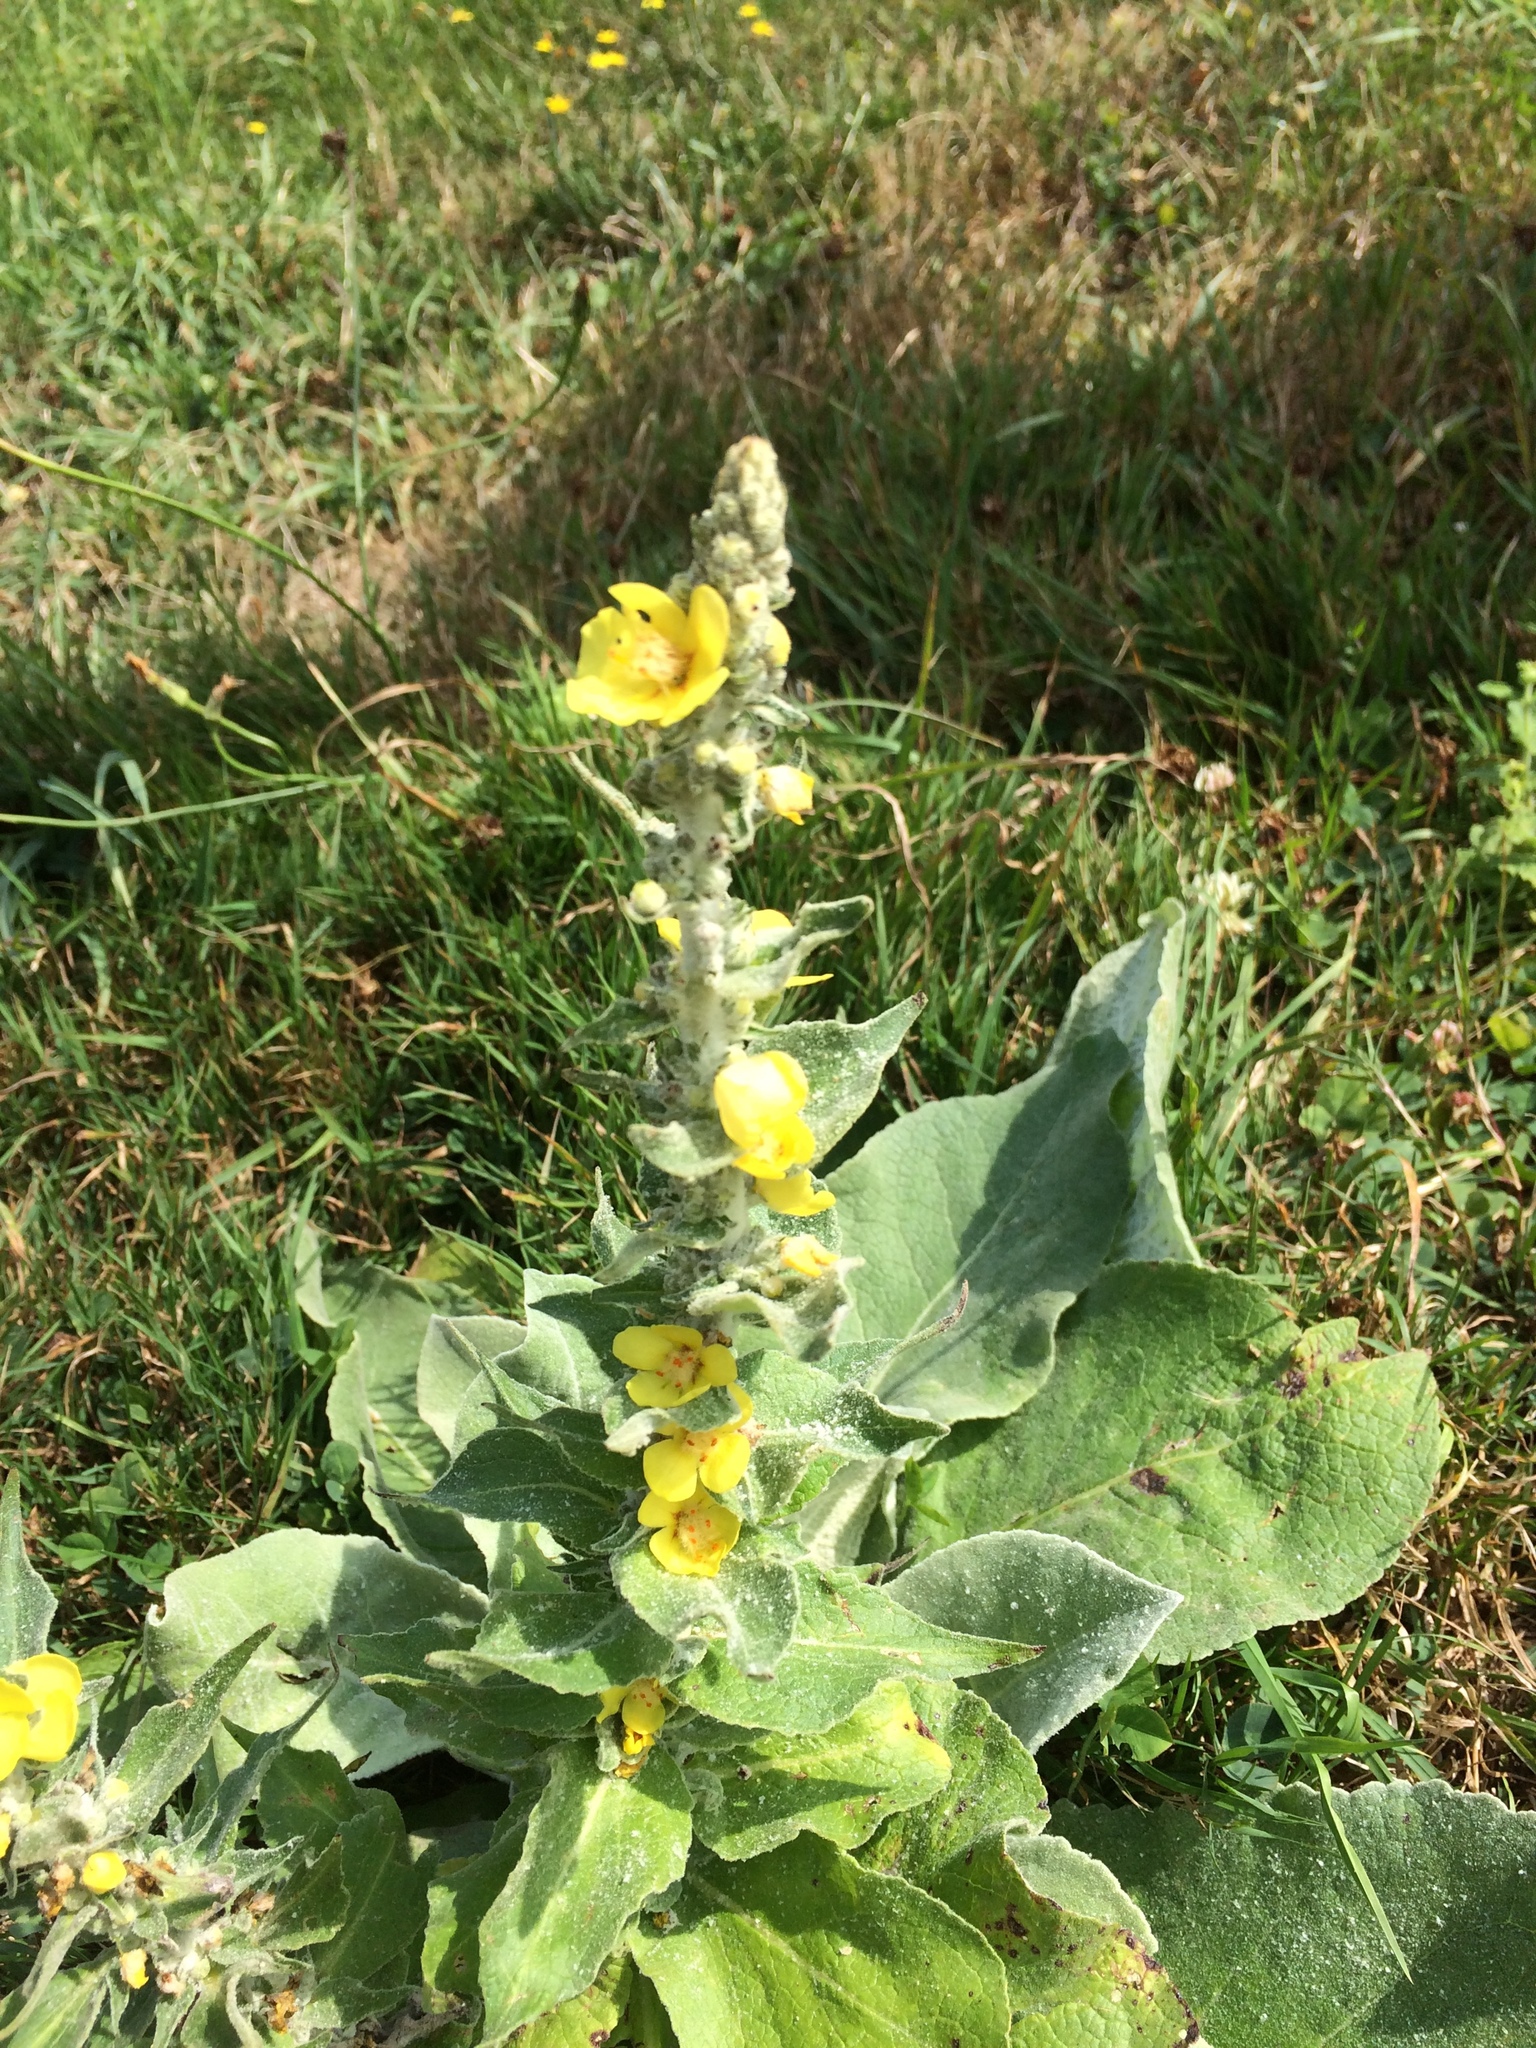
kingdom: Plantae
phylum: Tracheophyta
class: Magnoliopsida
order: Lamiales
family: Scrophulariaceae
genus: Verbascum
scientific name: Verbascum thapsus
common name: Common mullein
